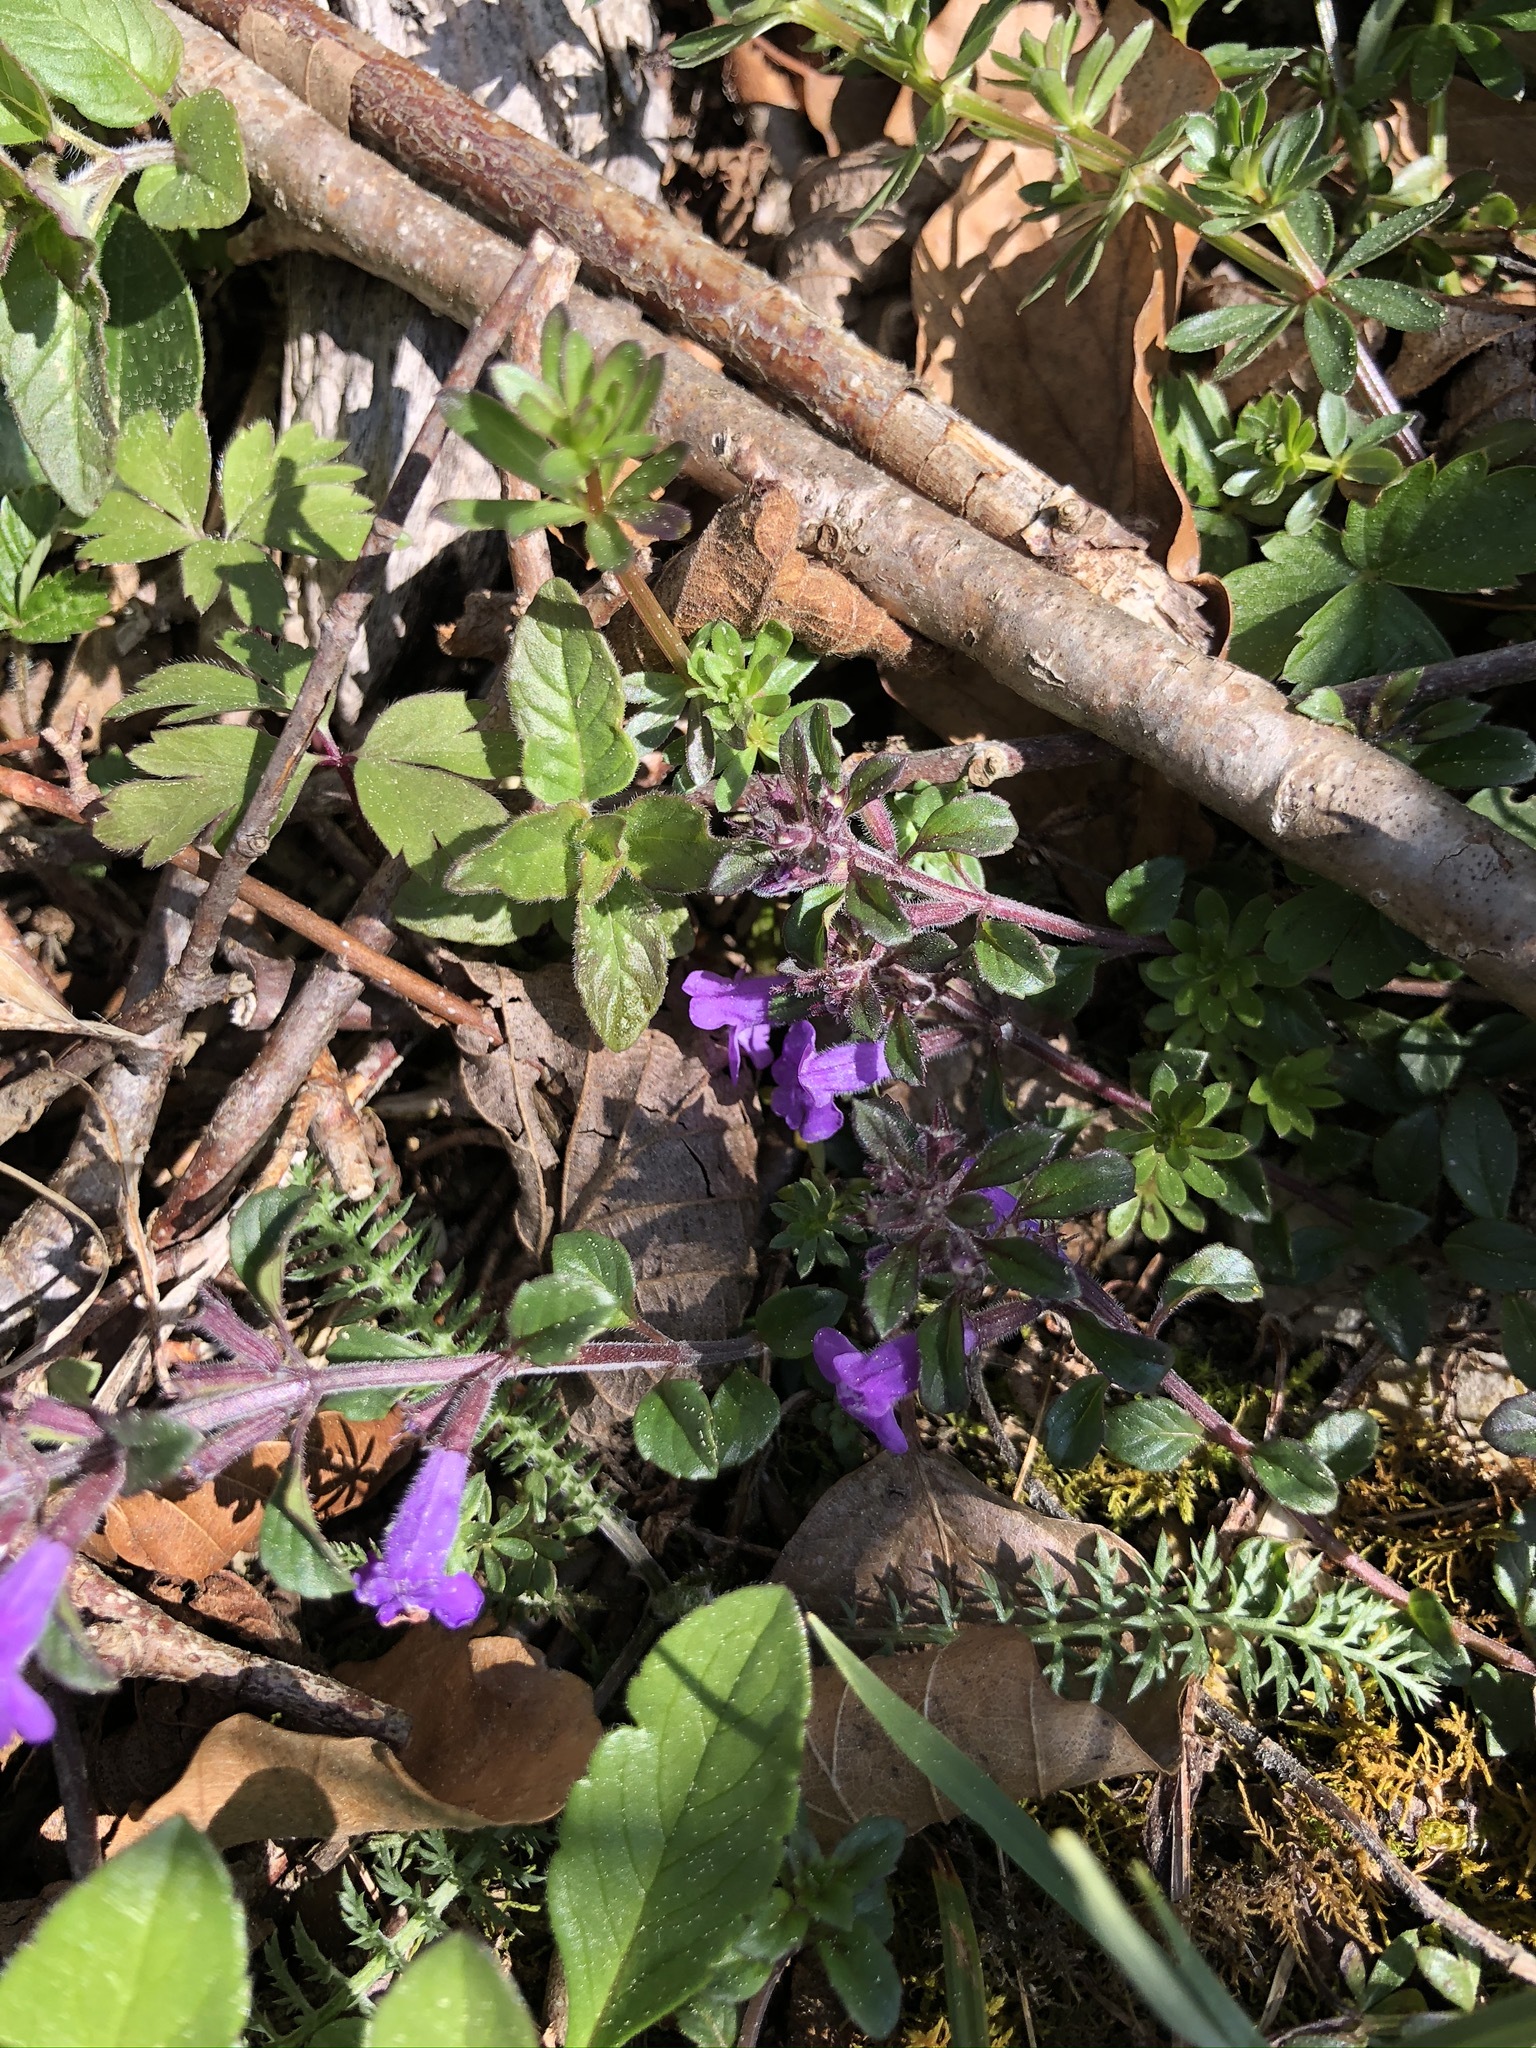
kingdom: Plantae
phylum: Tracheophyta
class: Magnoliopsida
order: Lamiales
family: Lamiaceae
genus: Clinopodium
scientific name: Clinopodium alpinum
